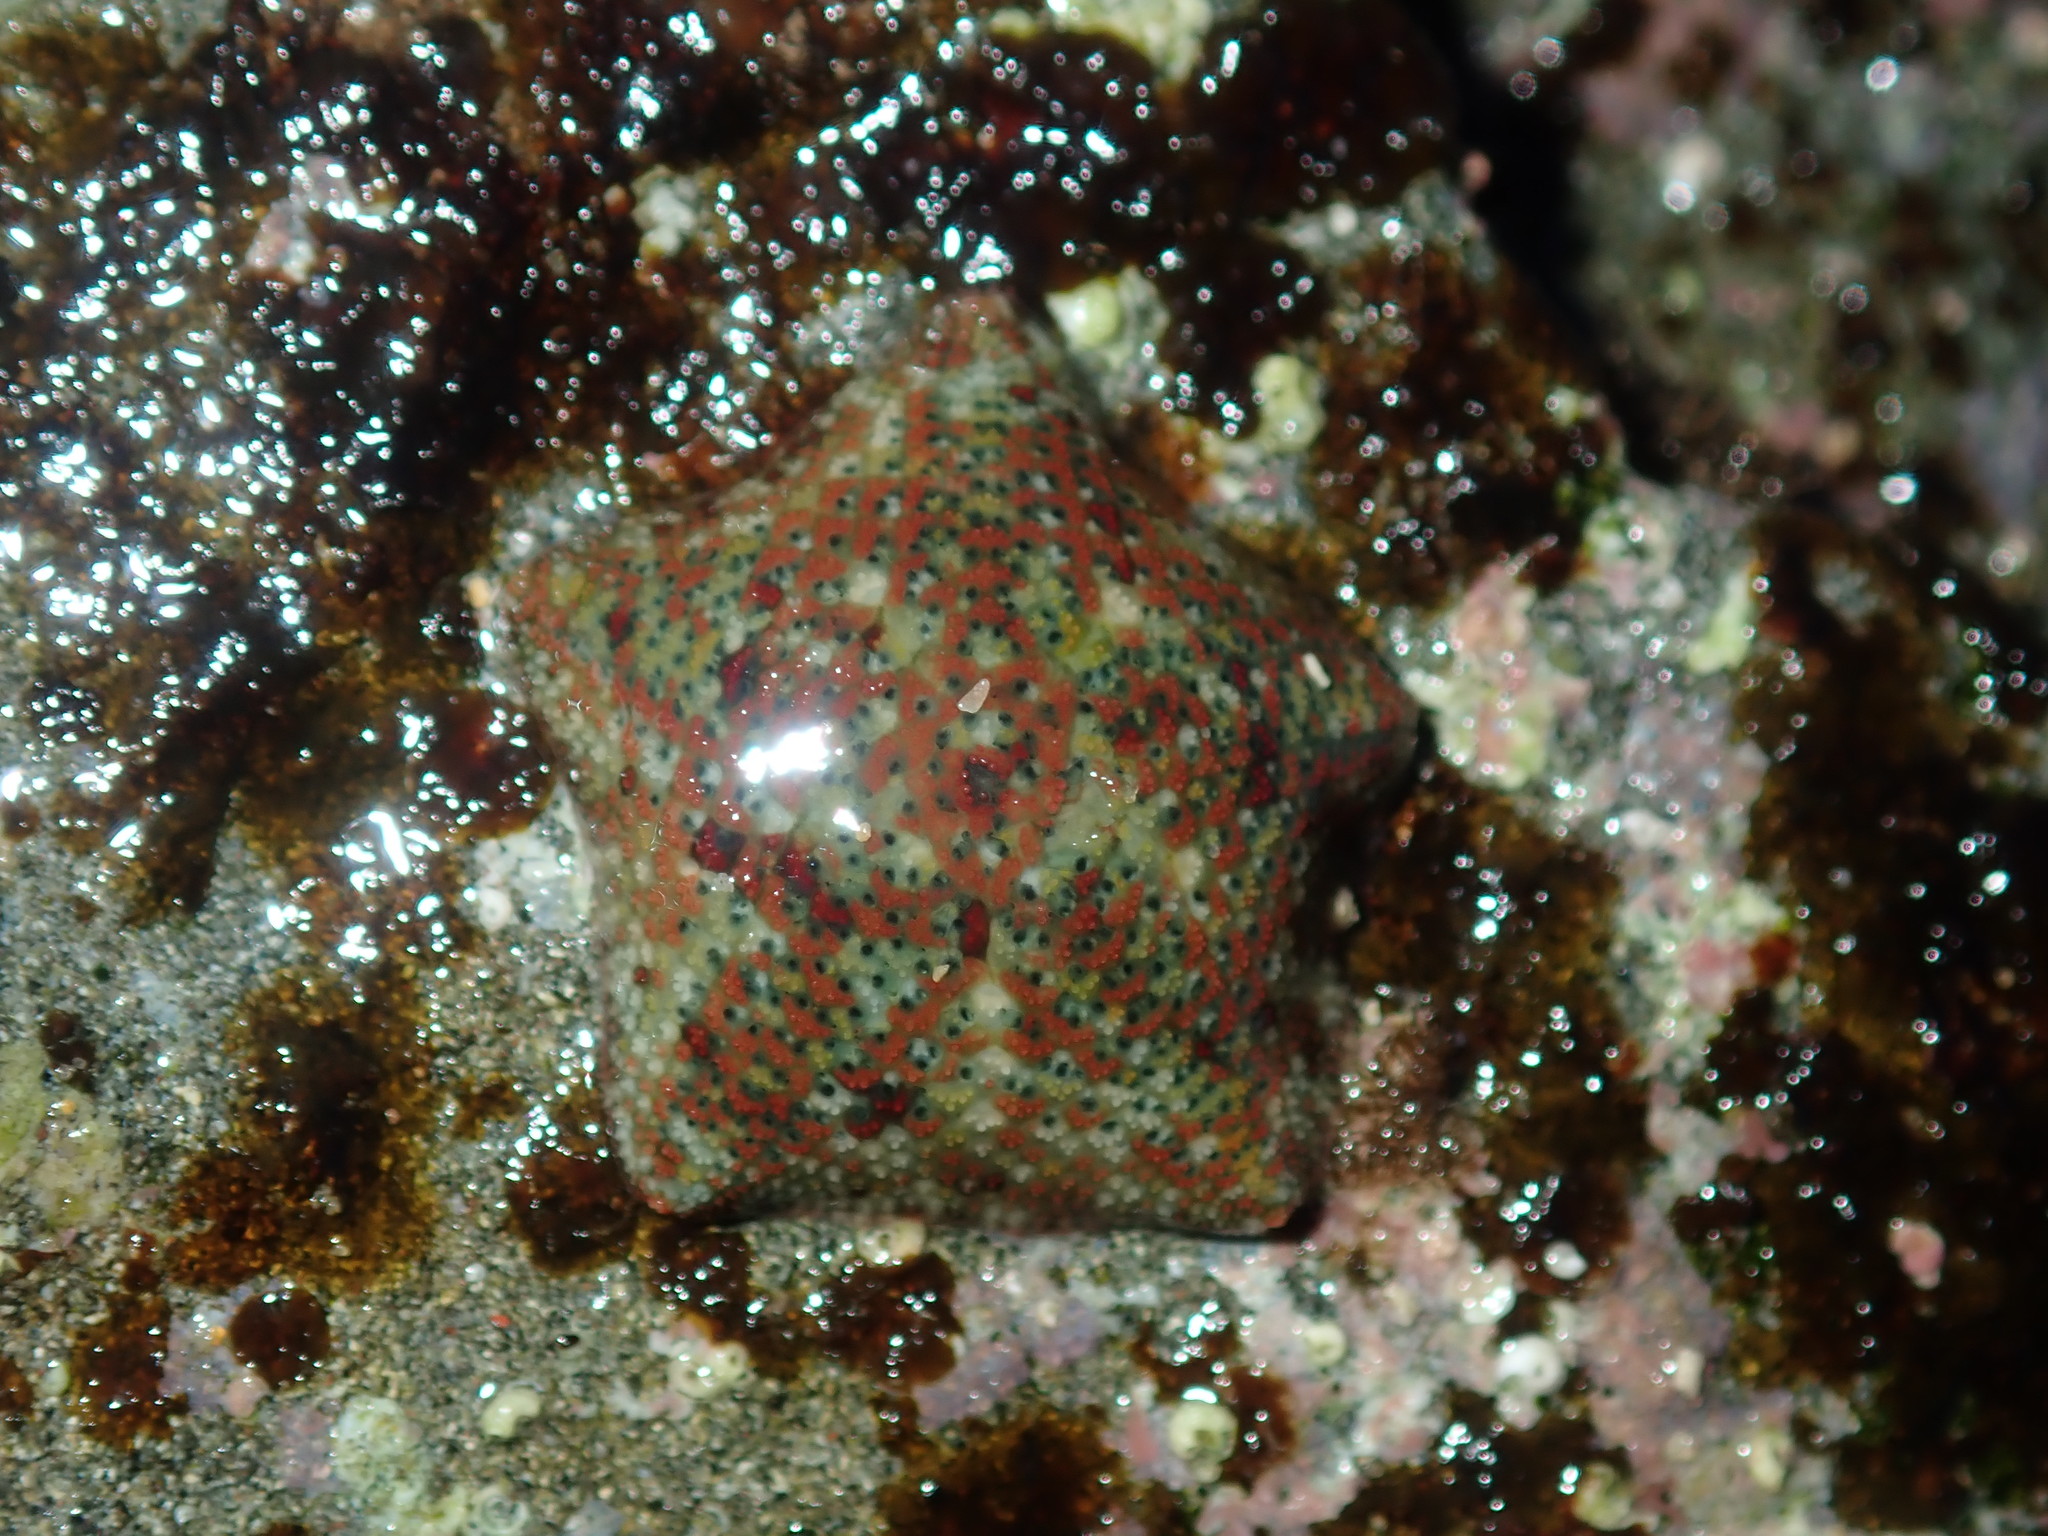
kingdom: Animalia
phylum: Echinodermata
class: Asteroidea
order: Valvatida
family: Asterinidae
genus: Parvulastra
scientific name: Parvulastra exigua
